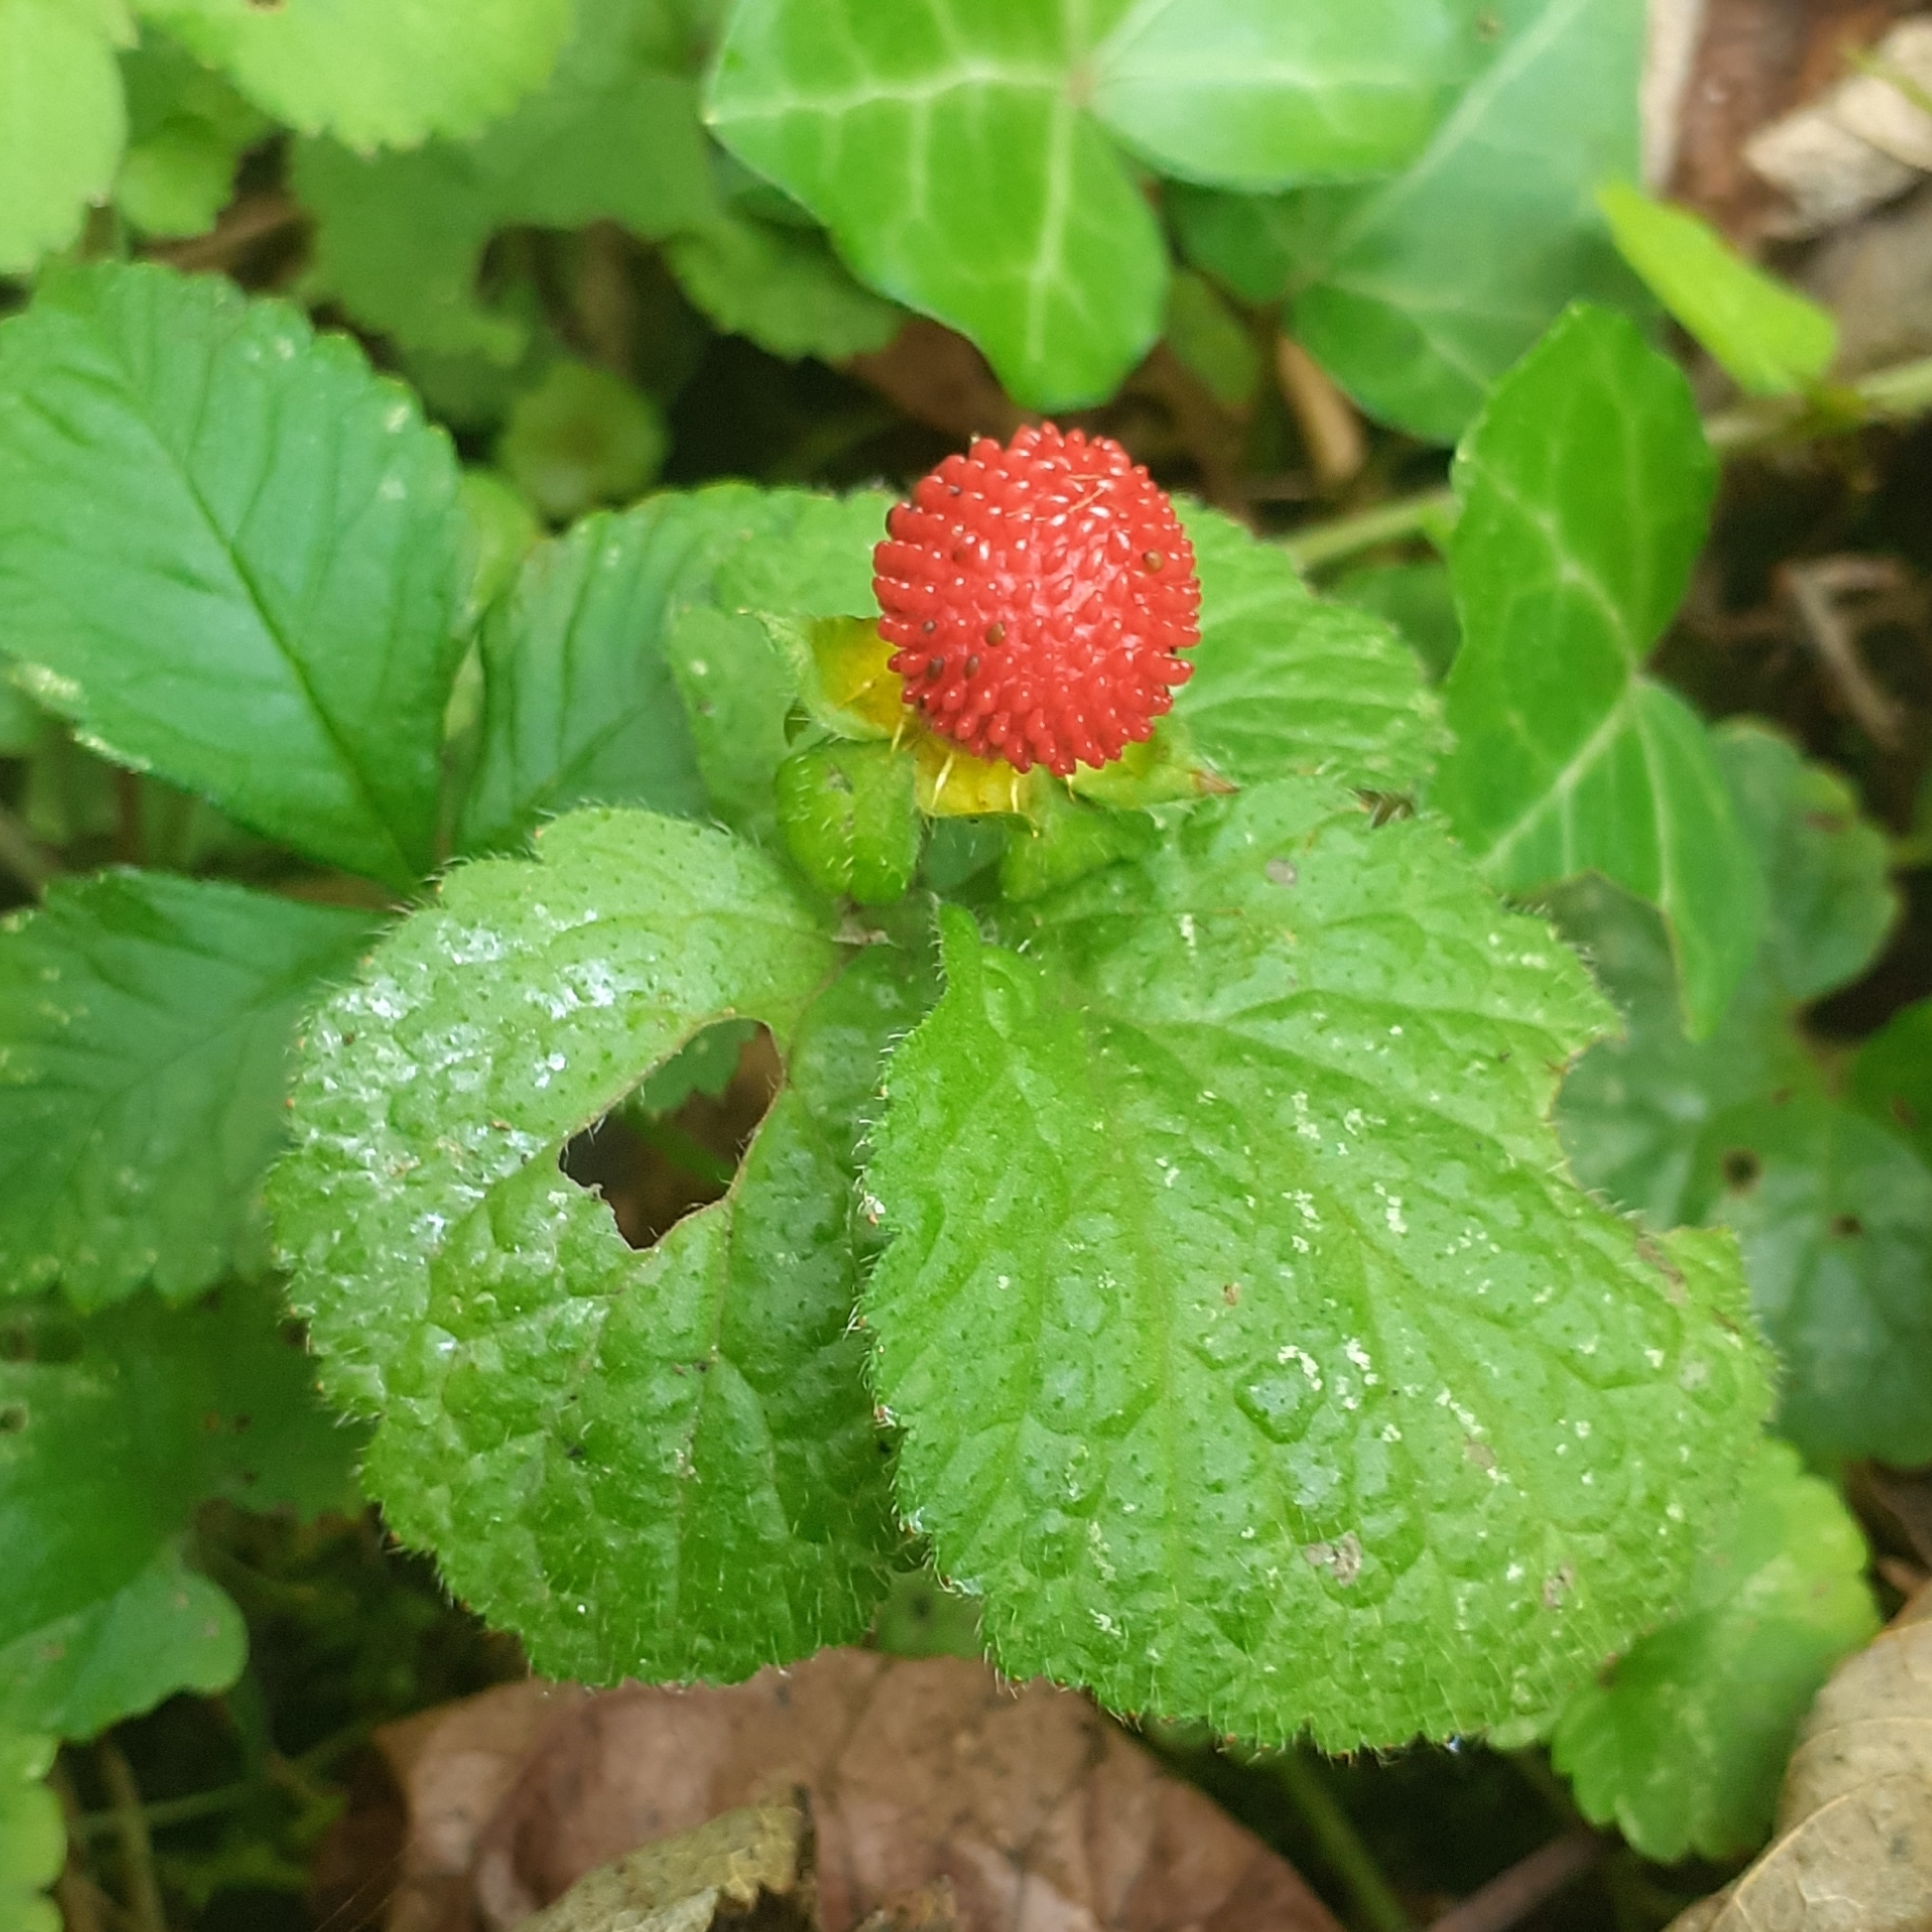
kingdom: Plantae
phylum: Tracheophyta
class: Magnoliopsida
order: Rosales
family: Rosaceae
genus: Potentilla
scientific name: Potentilla indica
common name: Yellow-flowered strawberry
